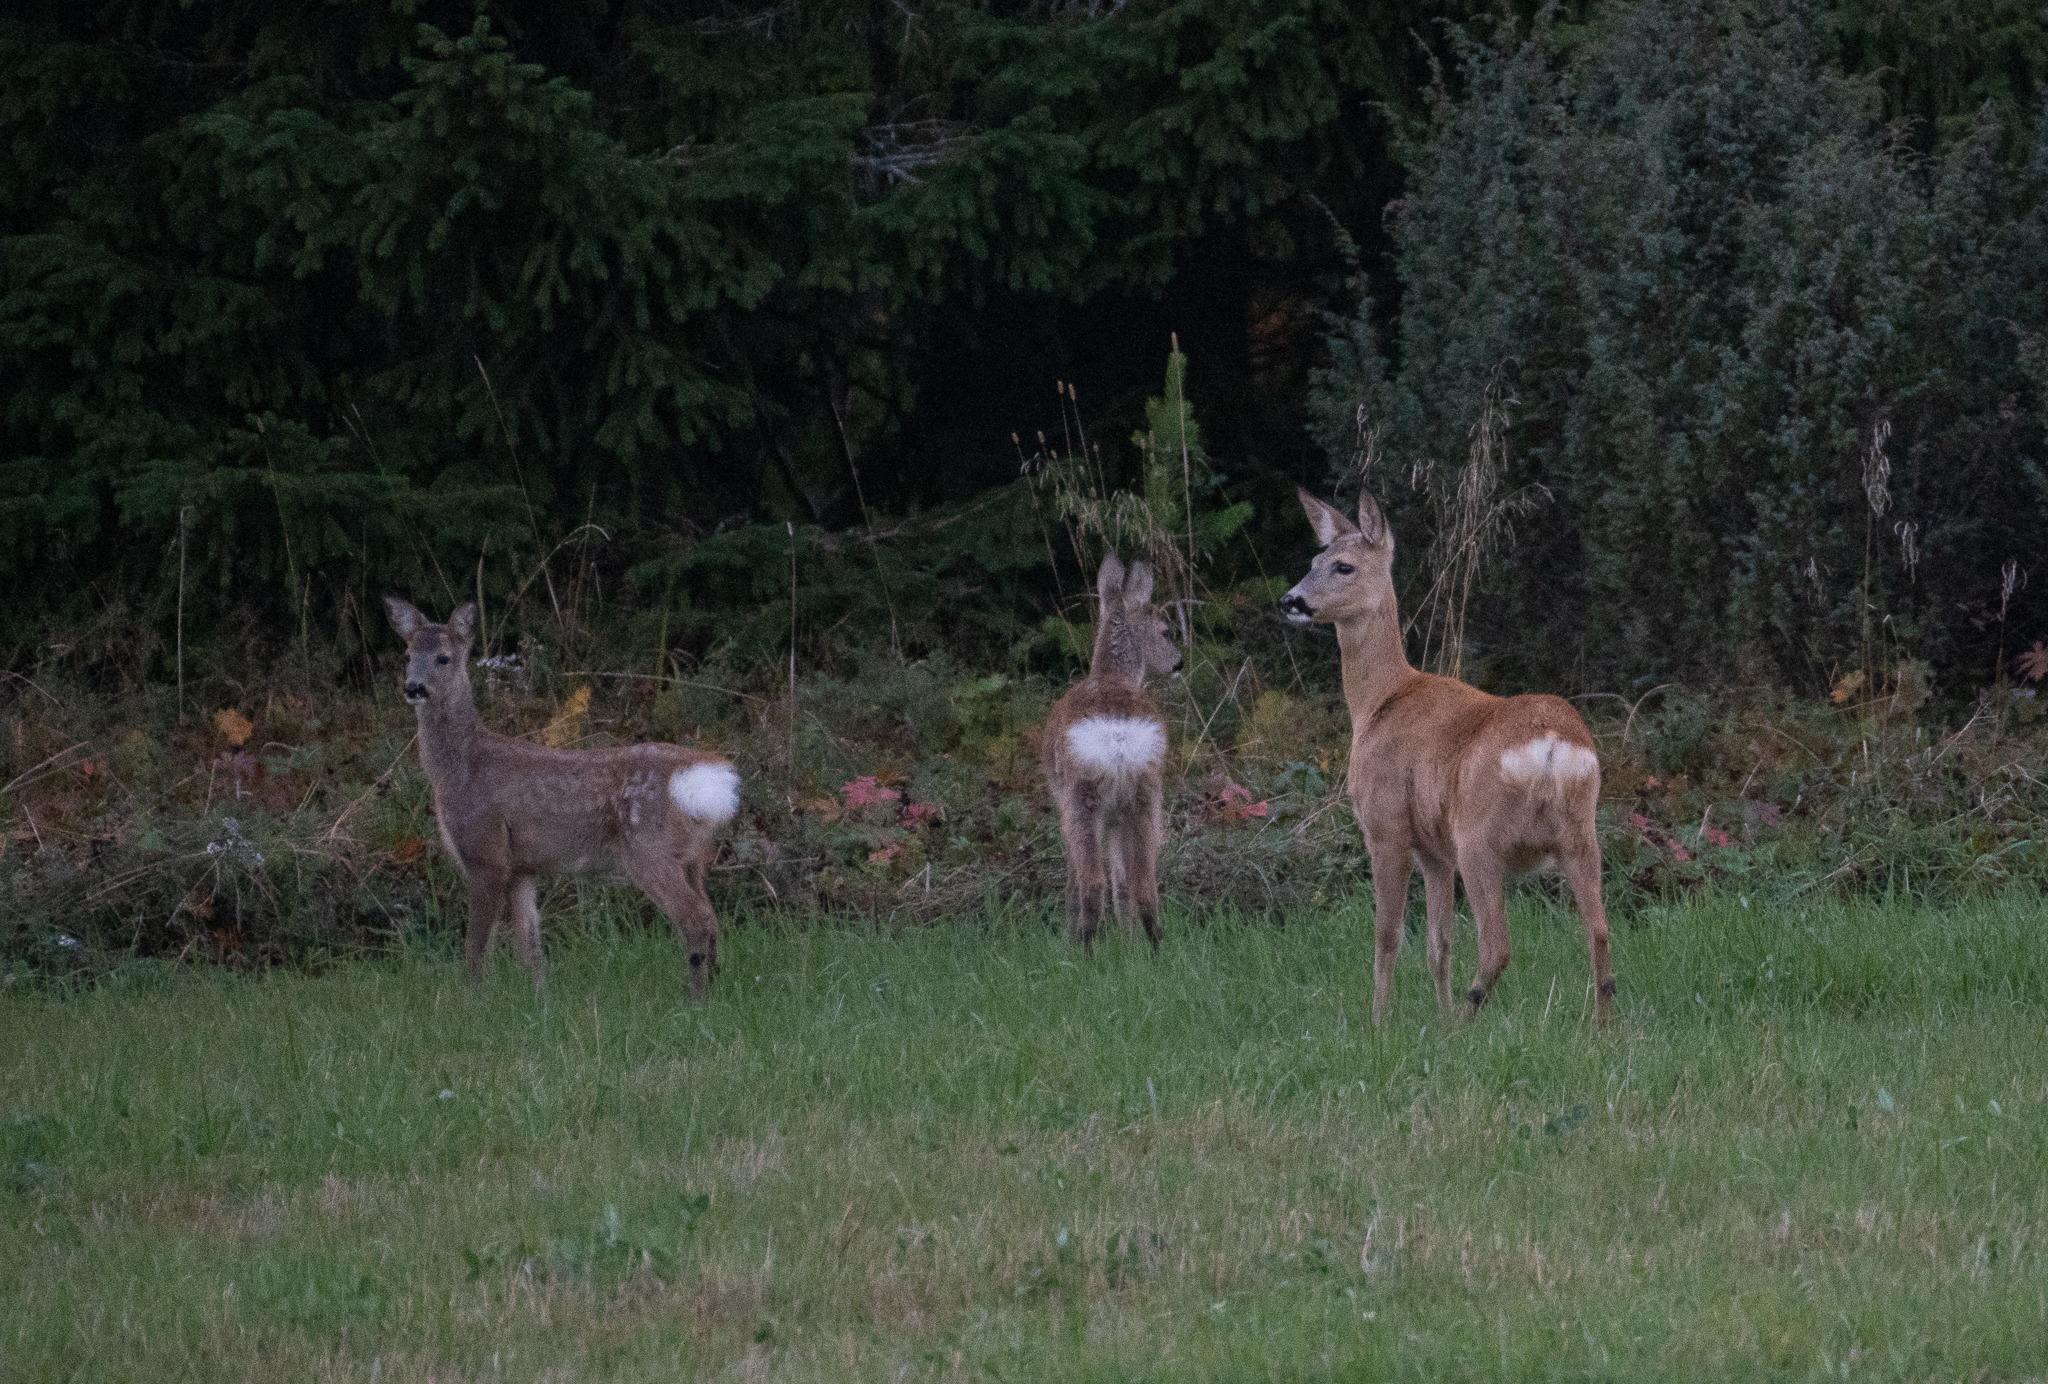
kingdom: Animalia
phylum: Chordata
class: Mammalia
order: Artiodactyla
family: Cervidae
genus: Capreolus
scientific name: Capreolus capreolus
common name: Western roe deer
